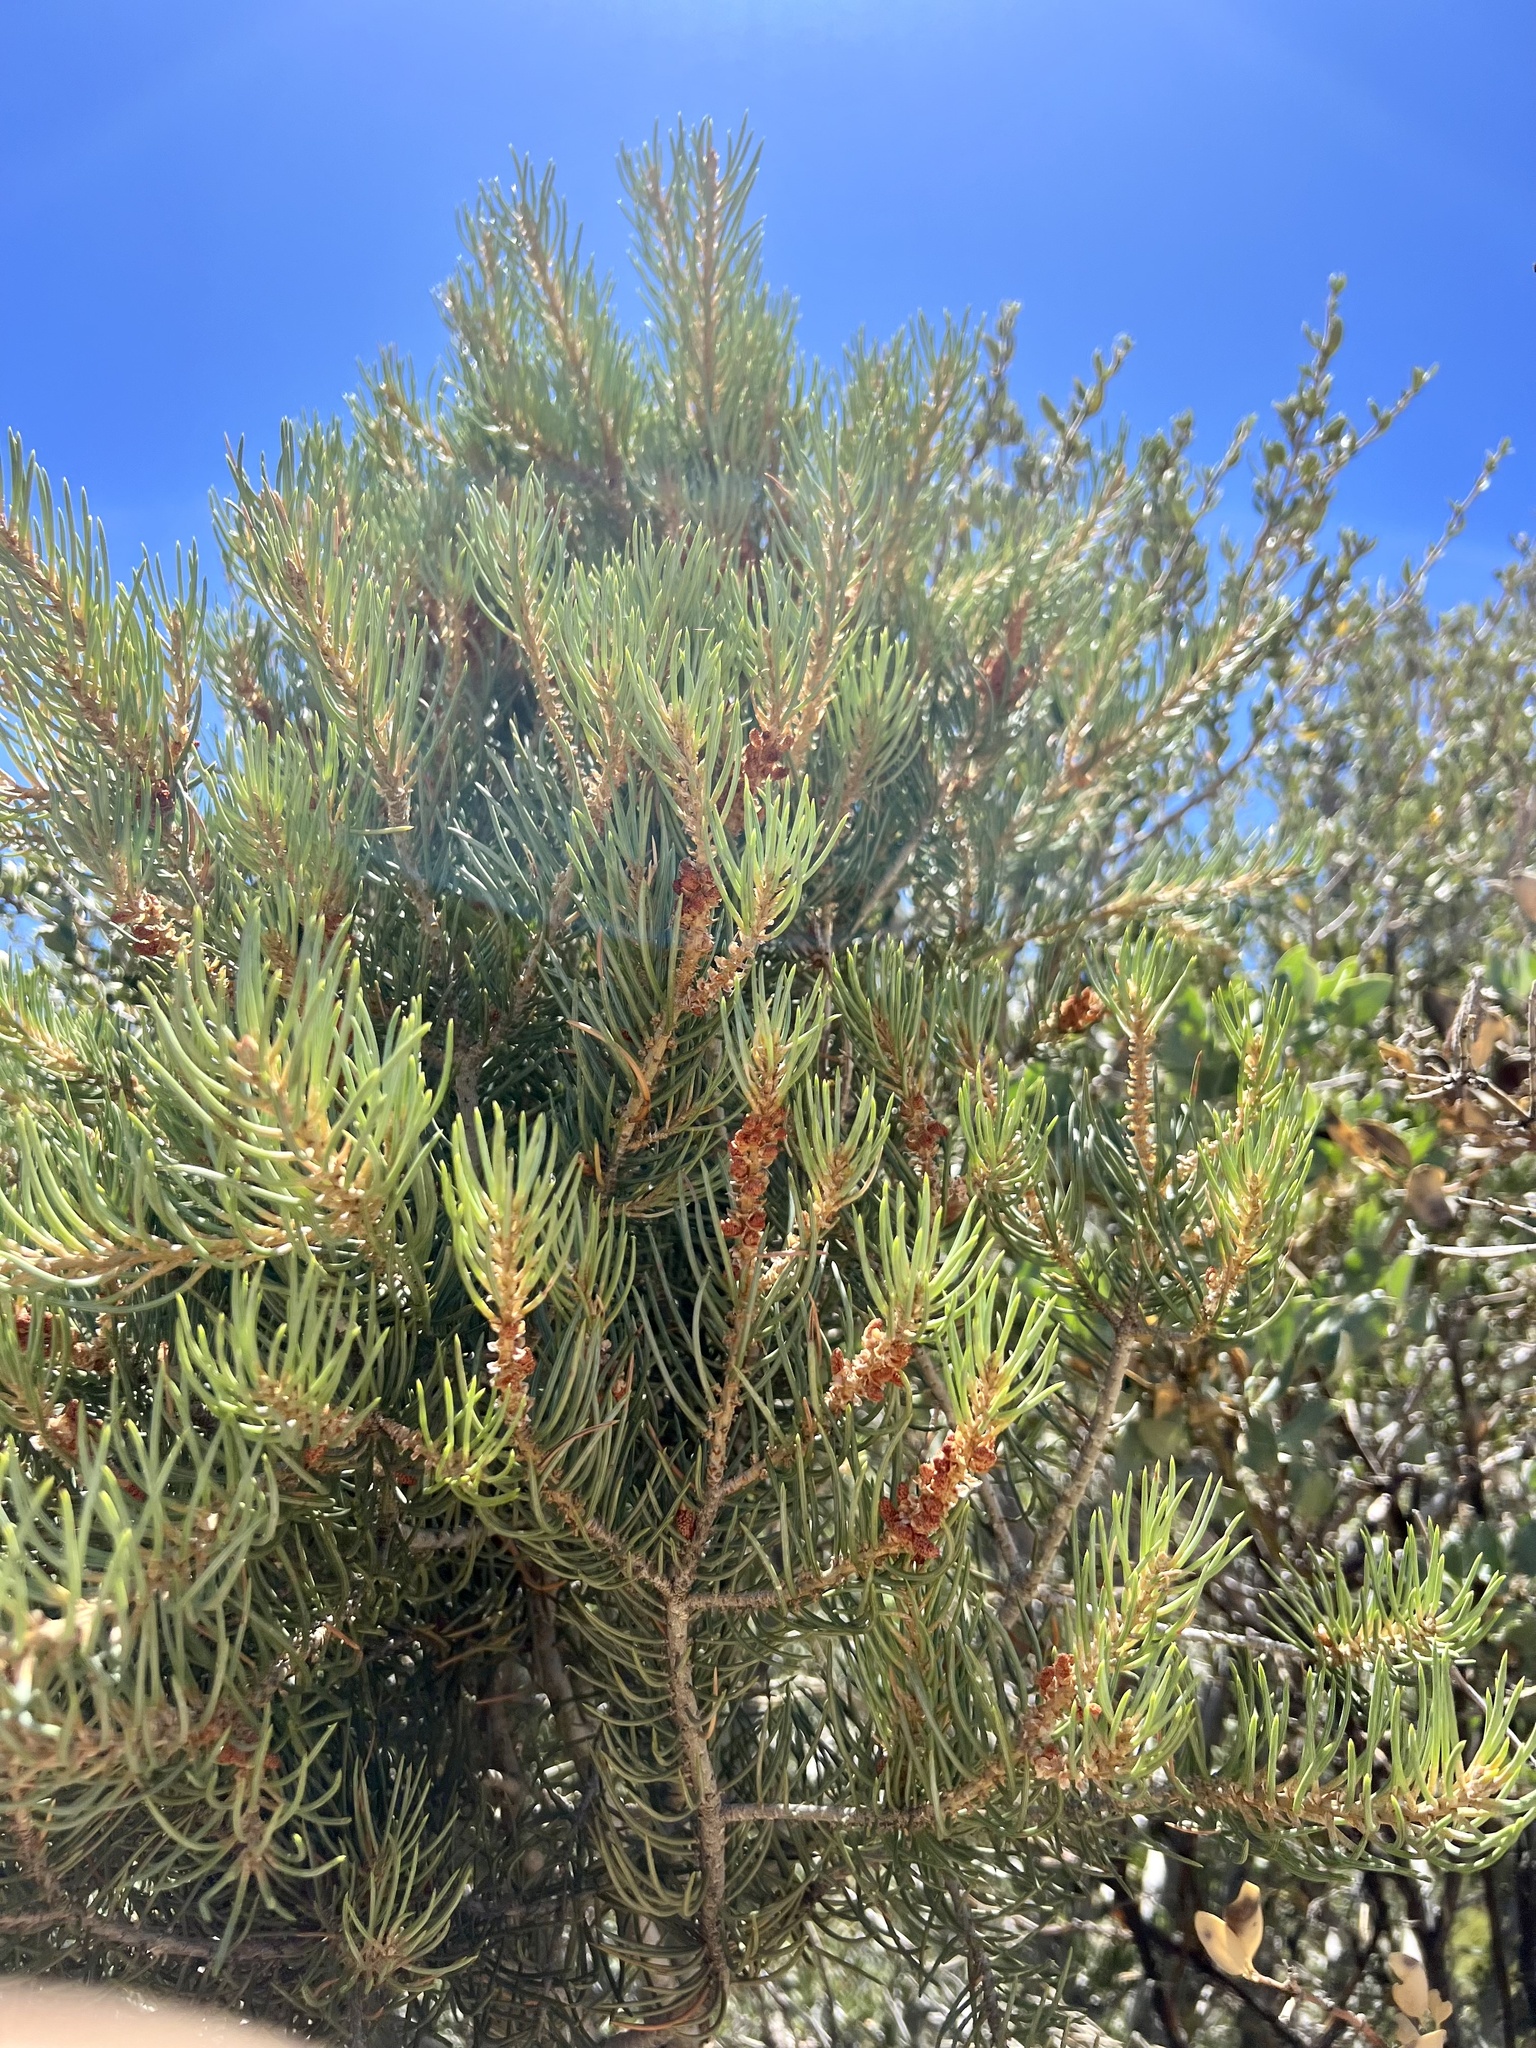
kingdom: Plantae
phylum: Tracheophyta
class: Pinopsida
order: Pinales
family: Pinaceae
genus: Pinus
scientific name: Pinus monophylla
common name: One-leaved nut pine
